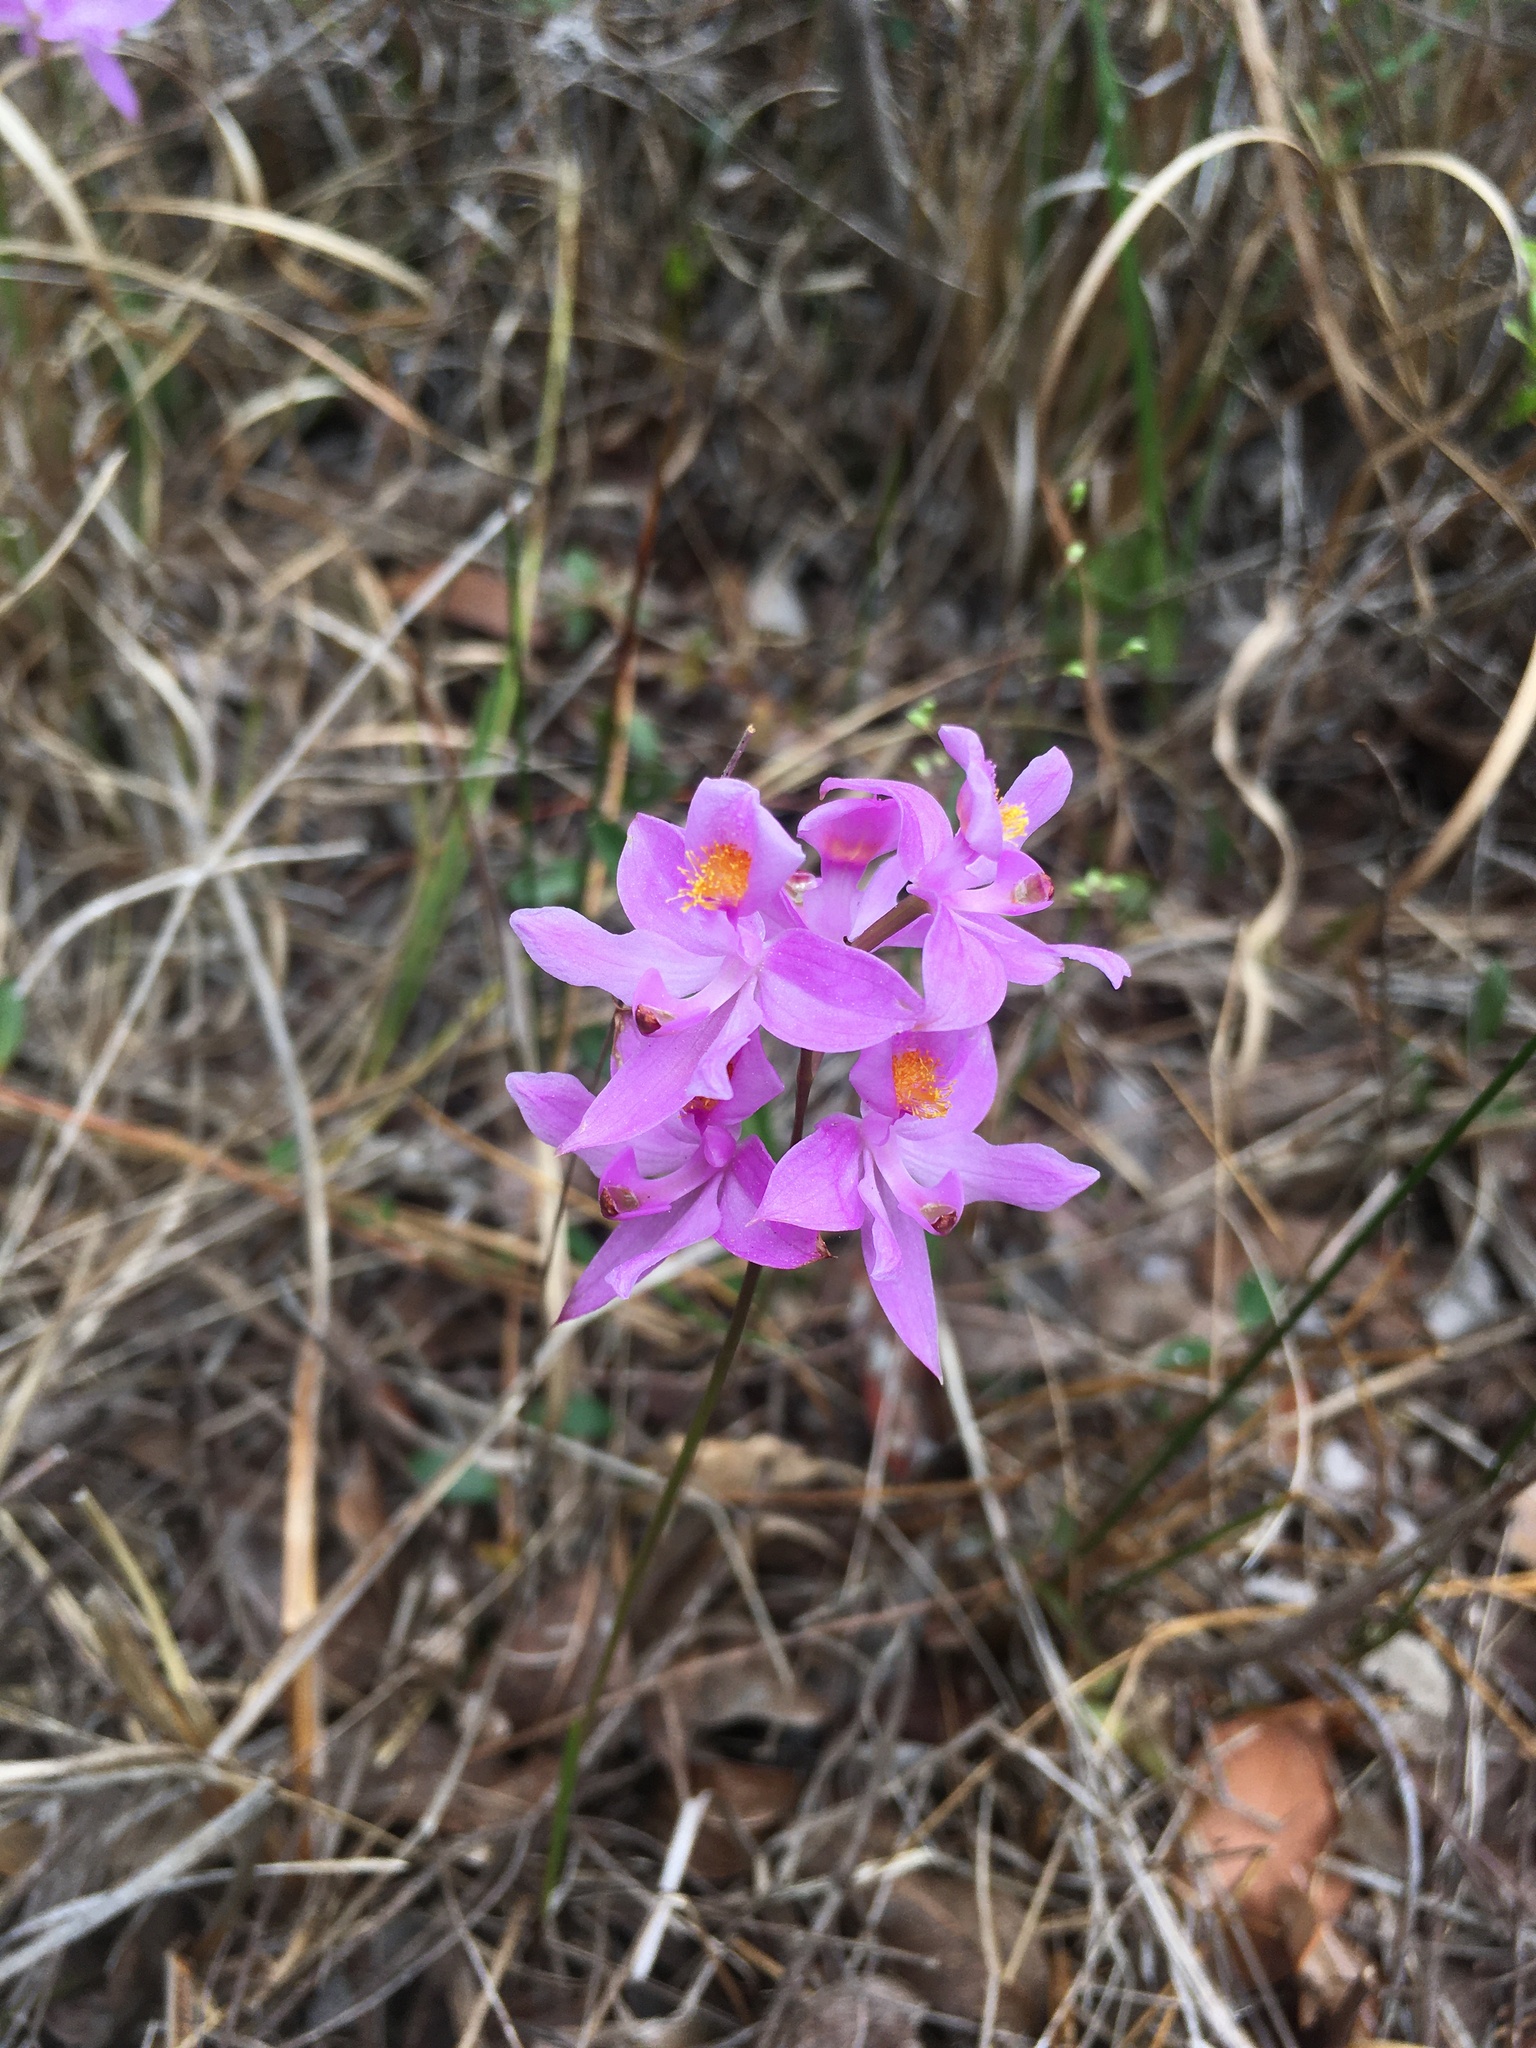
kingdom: Plantae
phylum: Tracheophyta
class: Liliopsida
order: Asparagales
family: Orchidaceae
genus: Calopogon
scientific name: Calopogon barbatus
